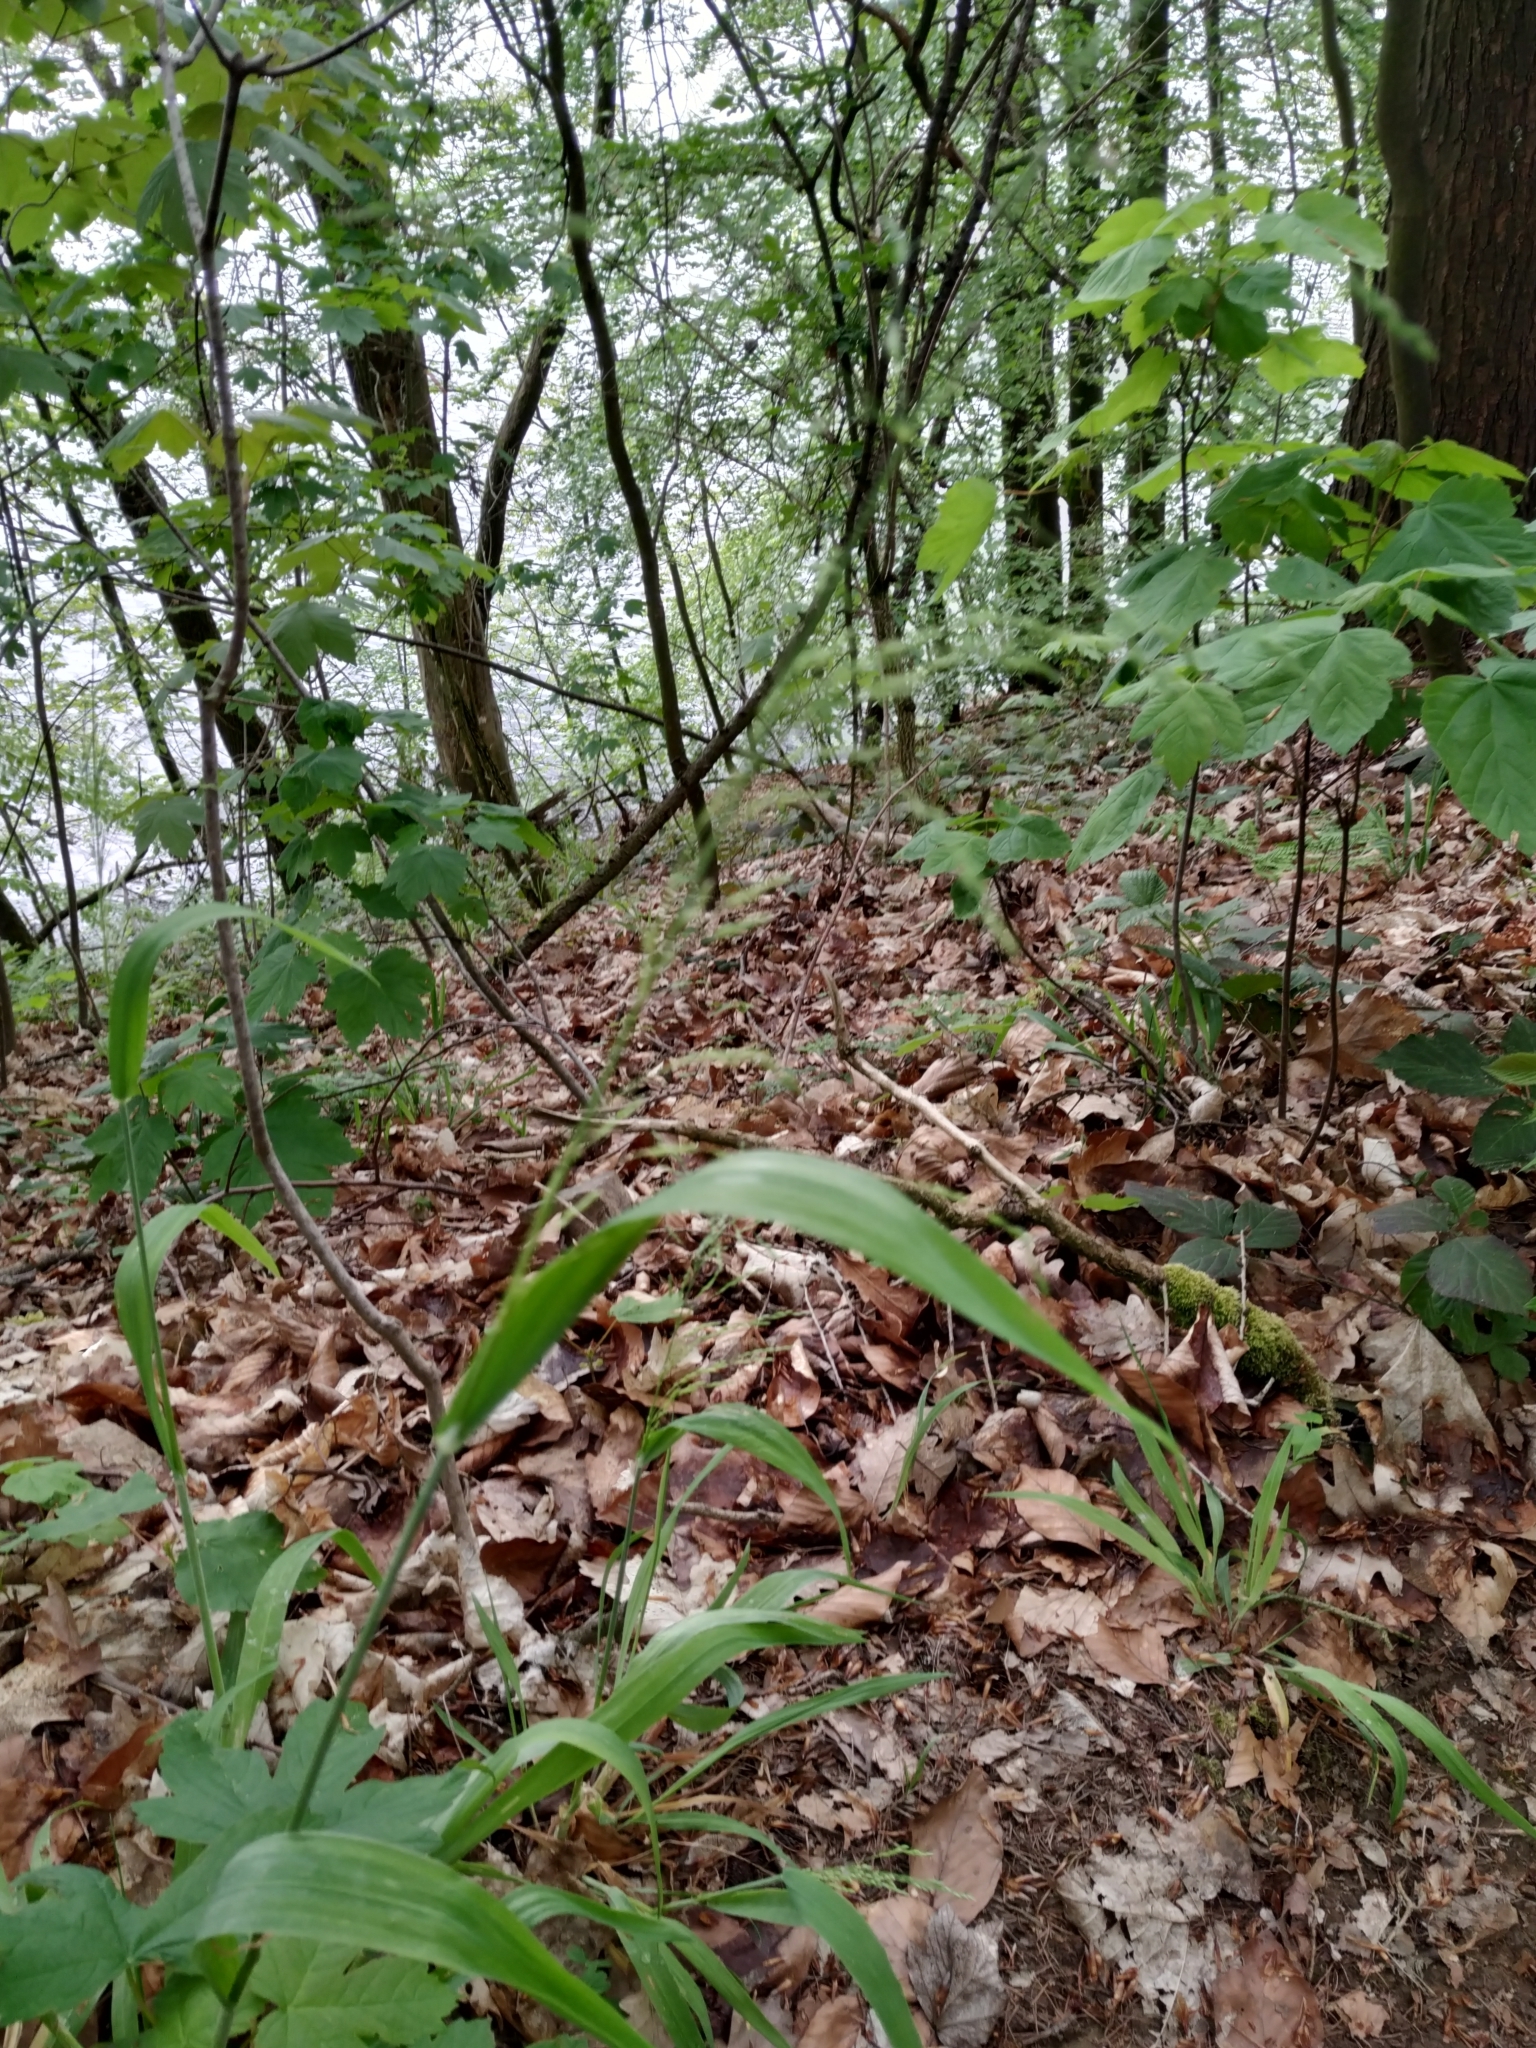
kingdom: Plantae
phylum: Tracheophyta
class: Liliopsida
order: Poales
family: Poaceae
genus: Milium
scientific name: Milium effusum
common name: Wood millet
